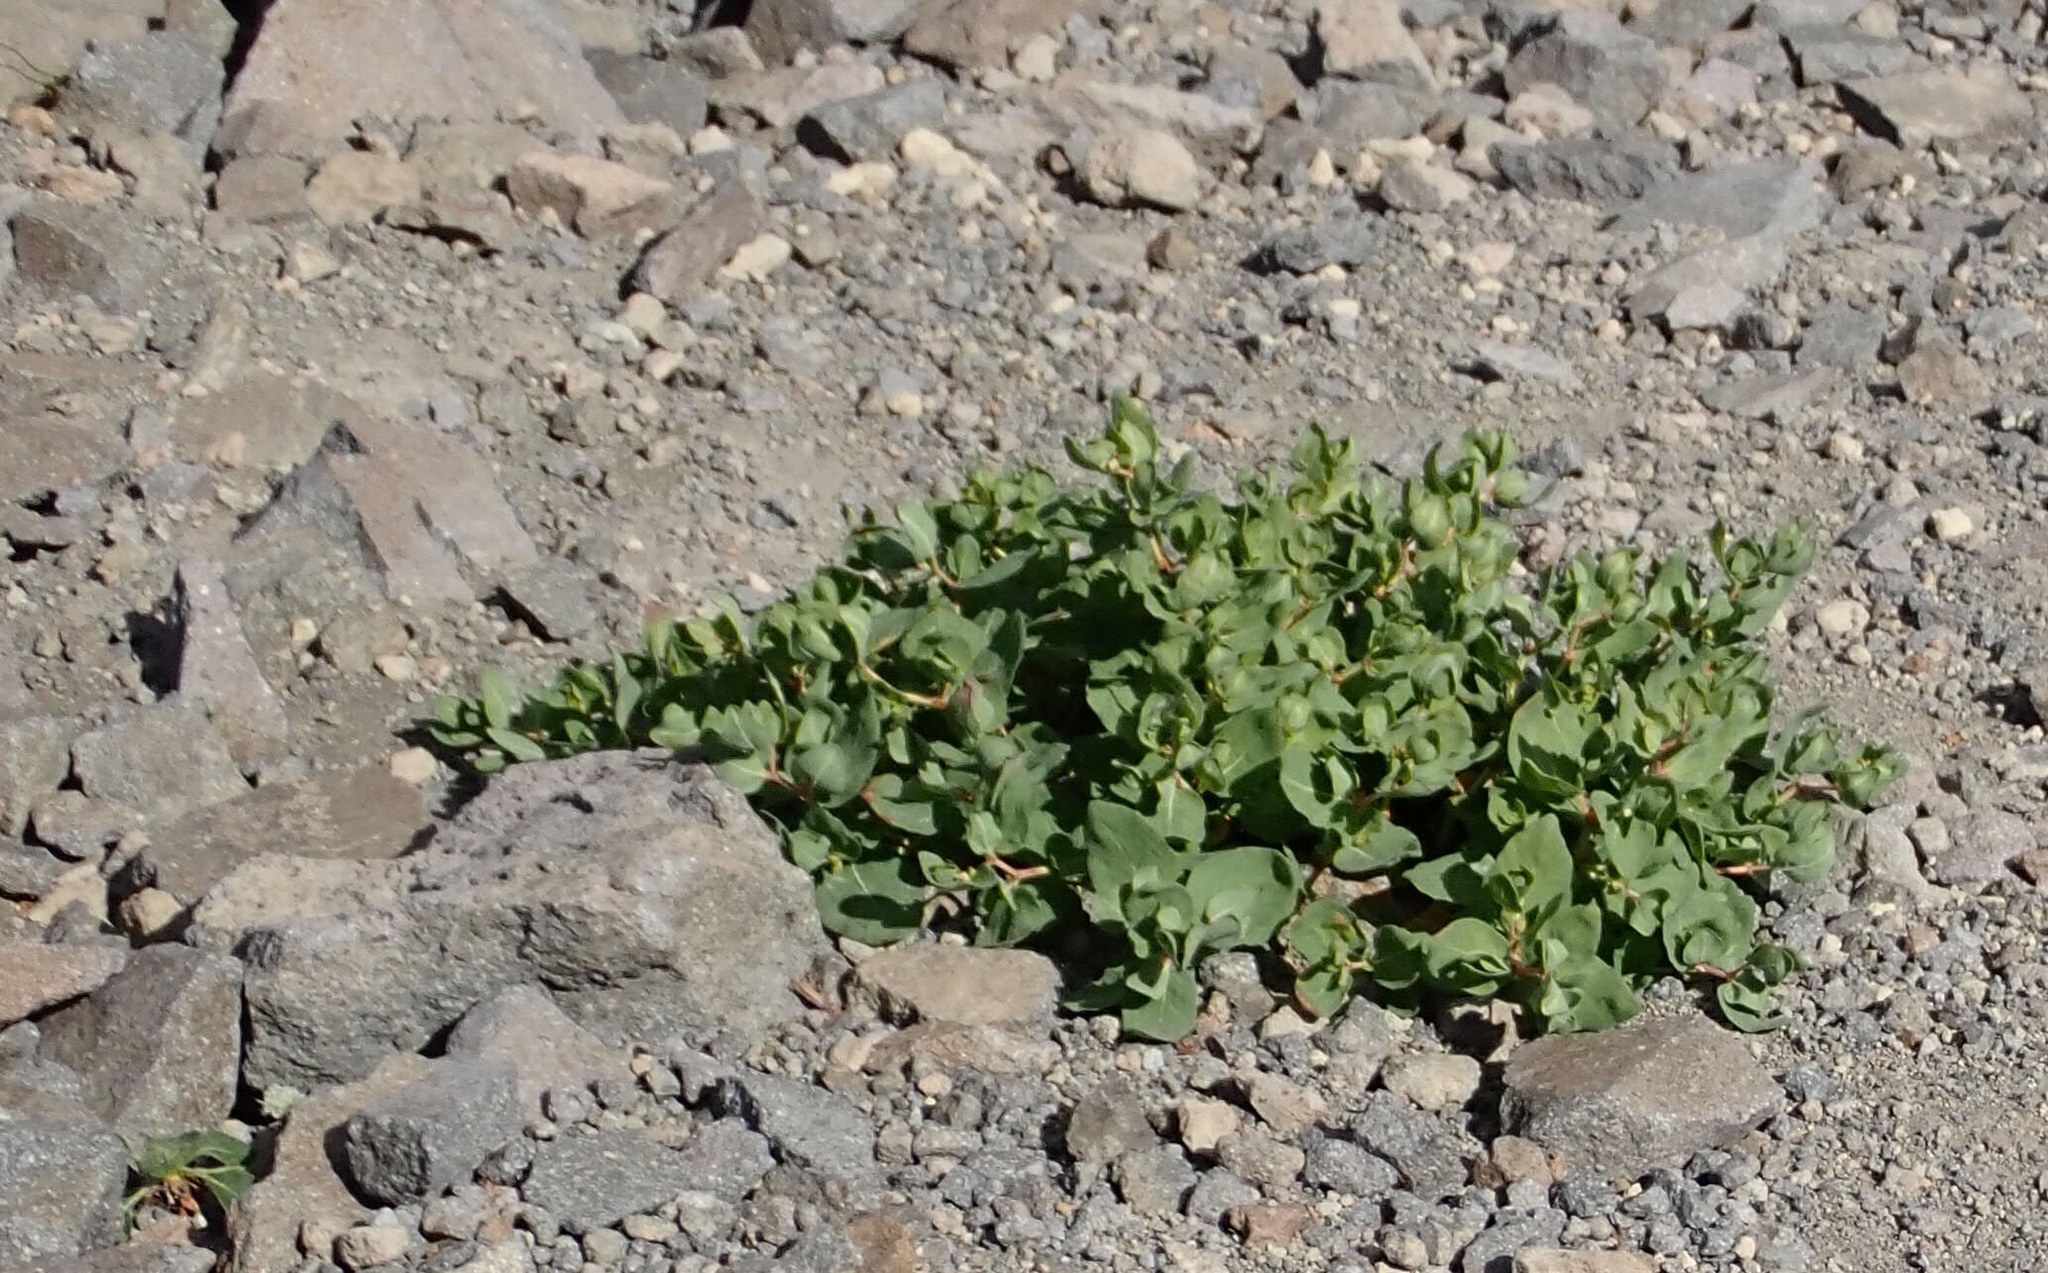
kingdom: Plantae
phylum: Tracheophyta
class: Magnoliopsida
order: Caryophyllales
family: Polygonaceae
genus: Koenigia
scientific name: Koenigia davisiae
